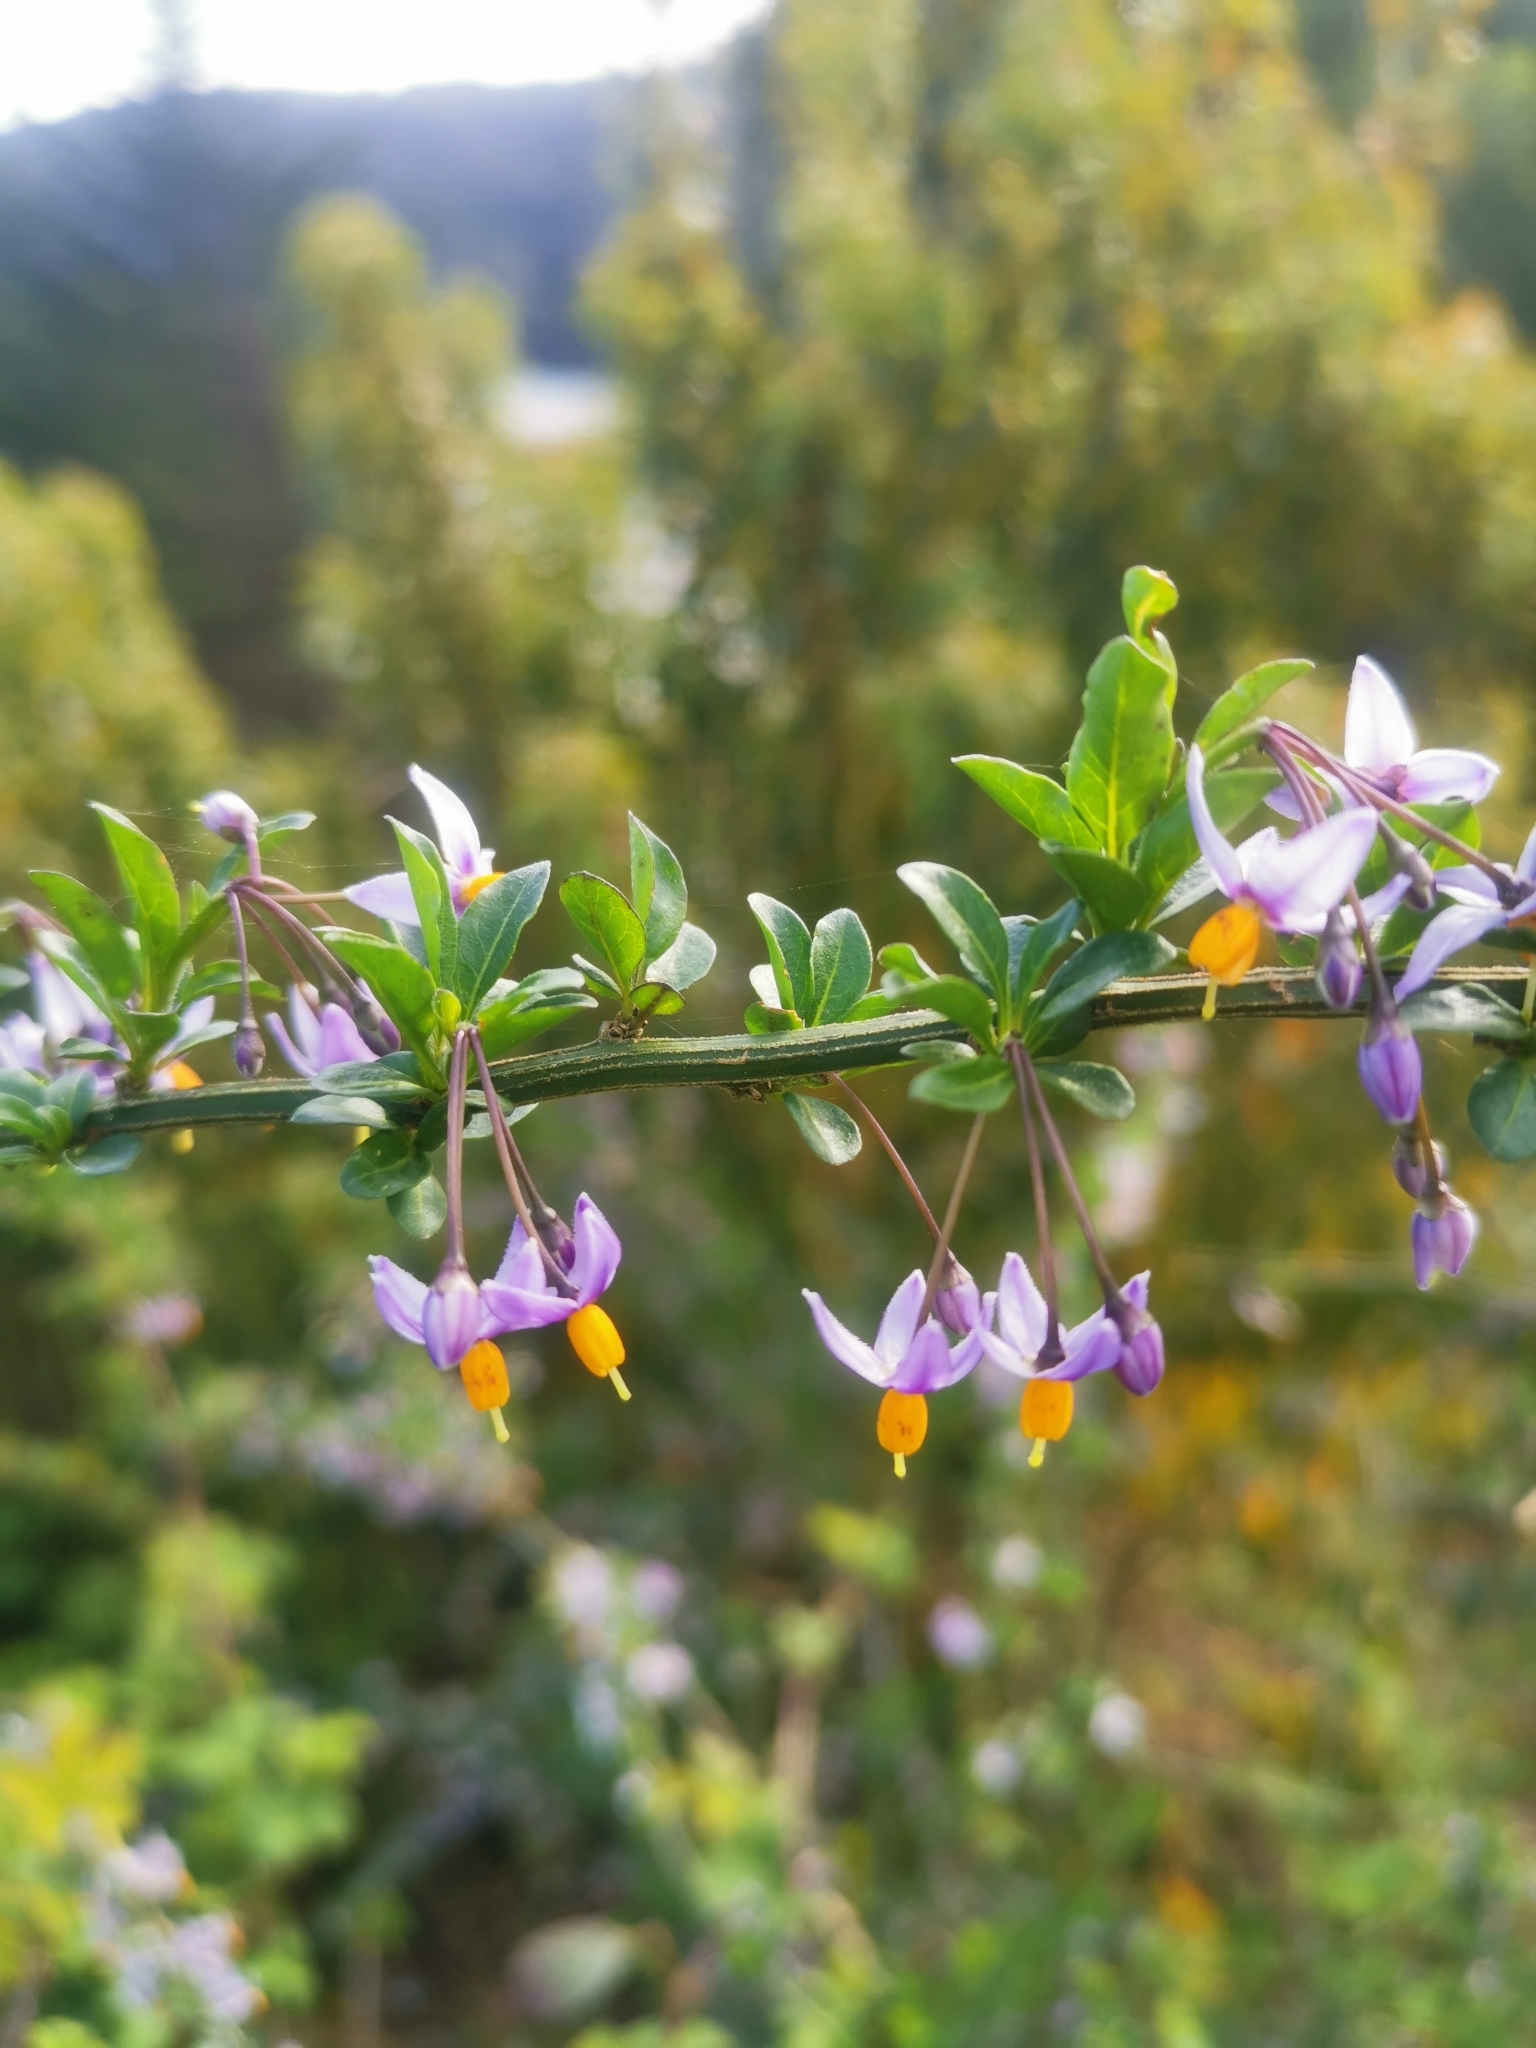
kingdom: Plantae
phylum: Tracheophyta
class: Magnoliopsida
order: Solanales
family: Solanaceae
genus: Solanum
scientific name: Solanum valdiviense
